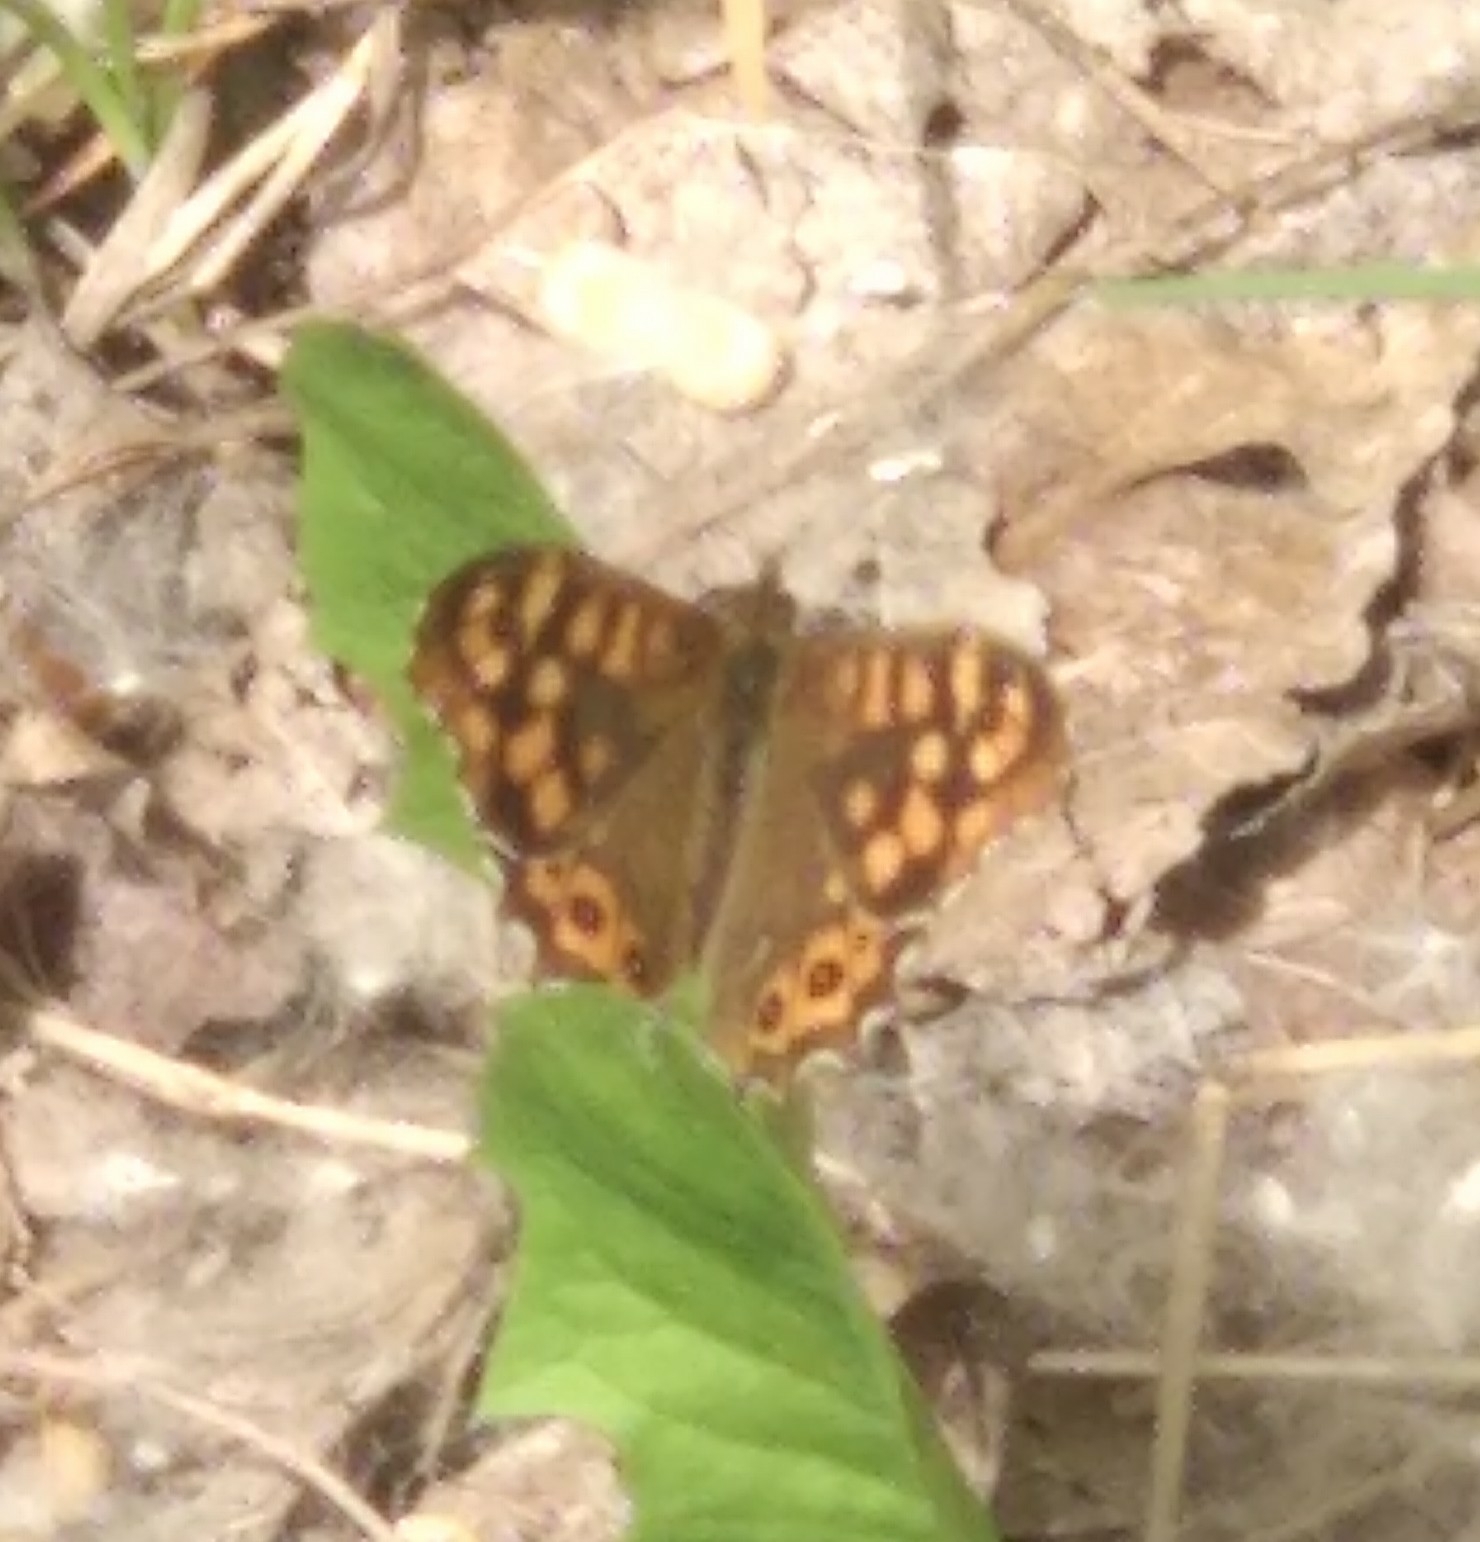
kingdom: Animalia
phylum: Arthropoda
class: Insecta
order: Lepidoptera
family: Nymphalidae
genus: Pararge
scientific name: Pararge aegeria
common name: Speckled wood
